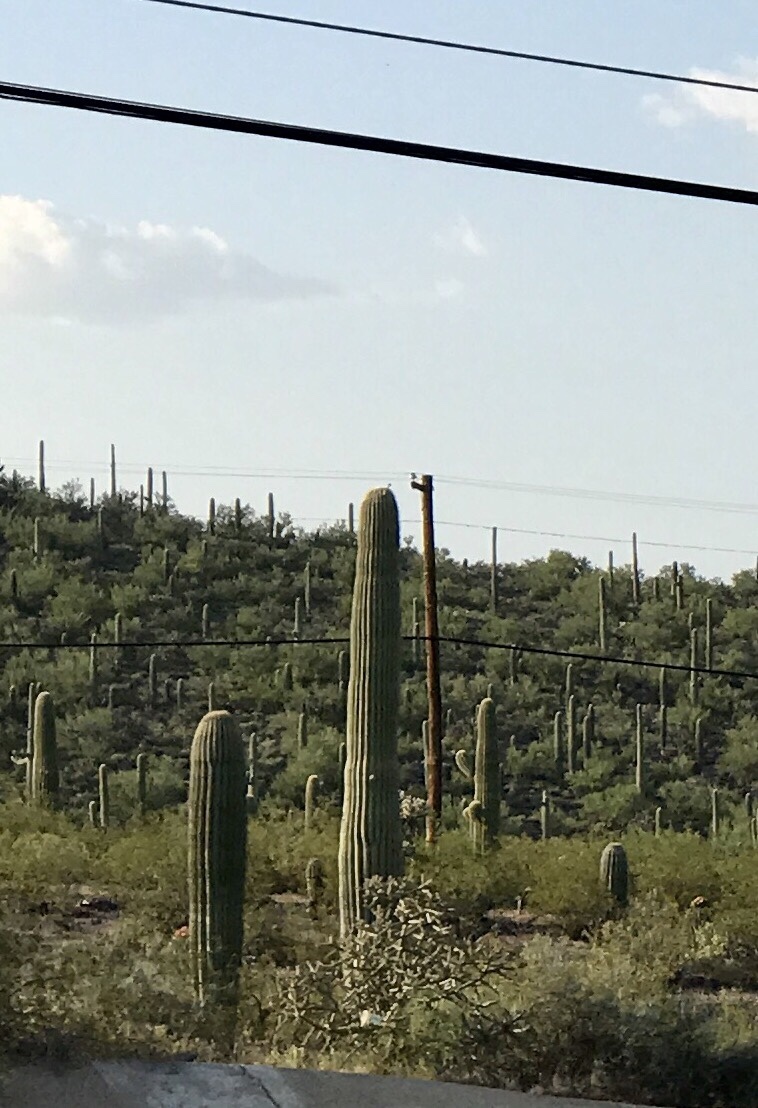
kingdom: Plantae
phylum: Tracheophyta
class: Magnoliopsida
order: Caryophyllales
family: Cactaceae
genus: Carnegiea
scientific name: Carnegiea gigantea
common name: Saguaro
